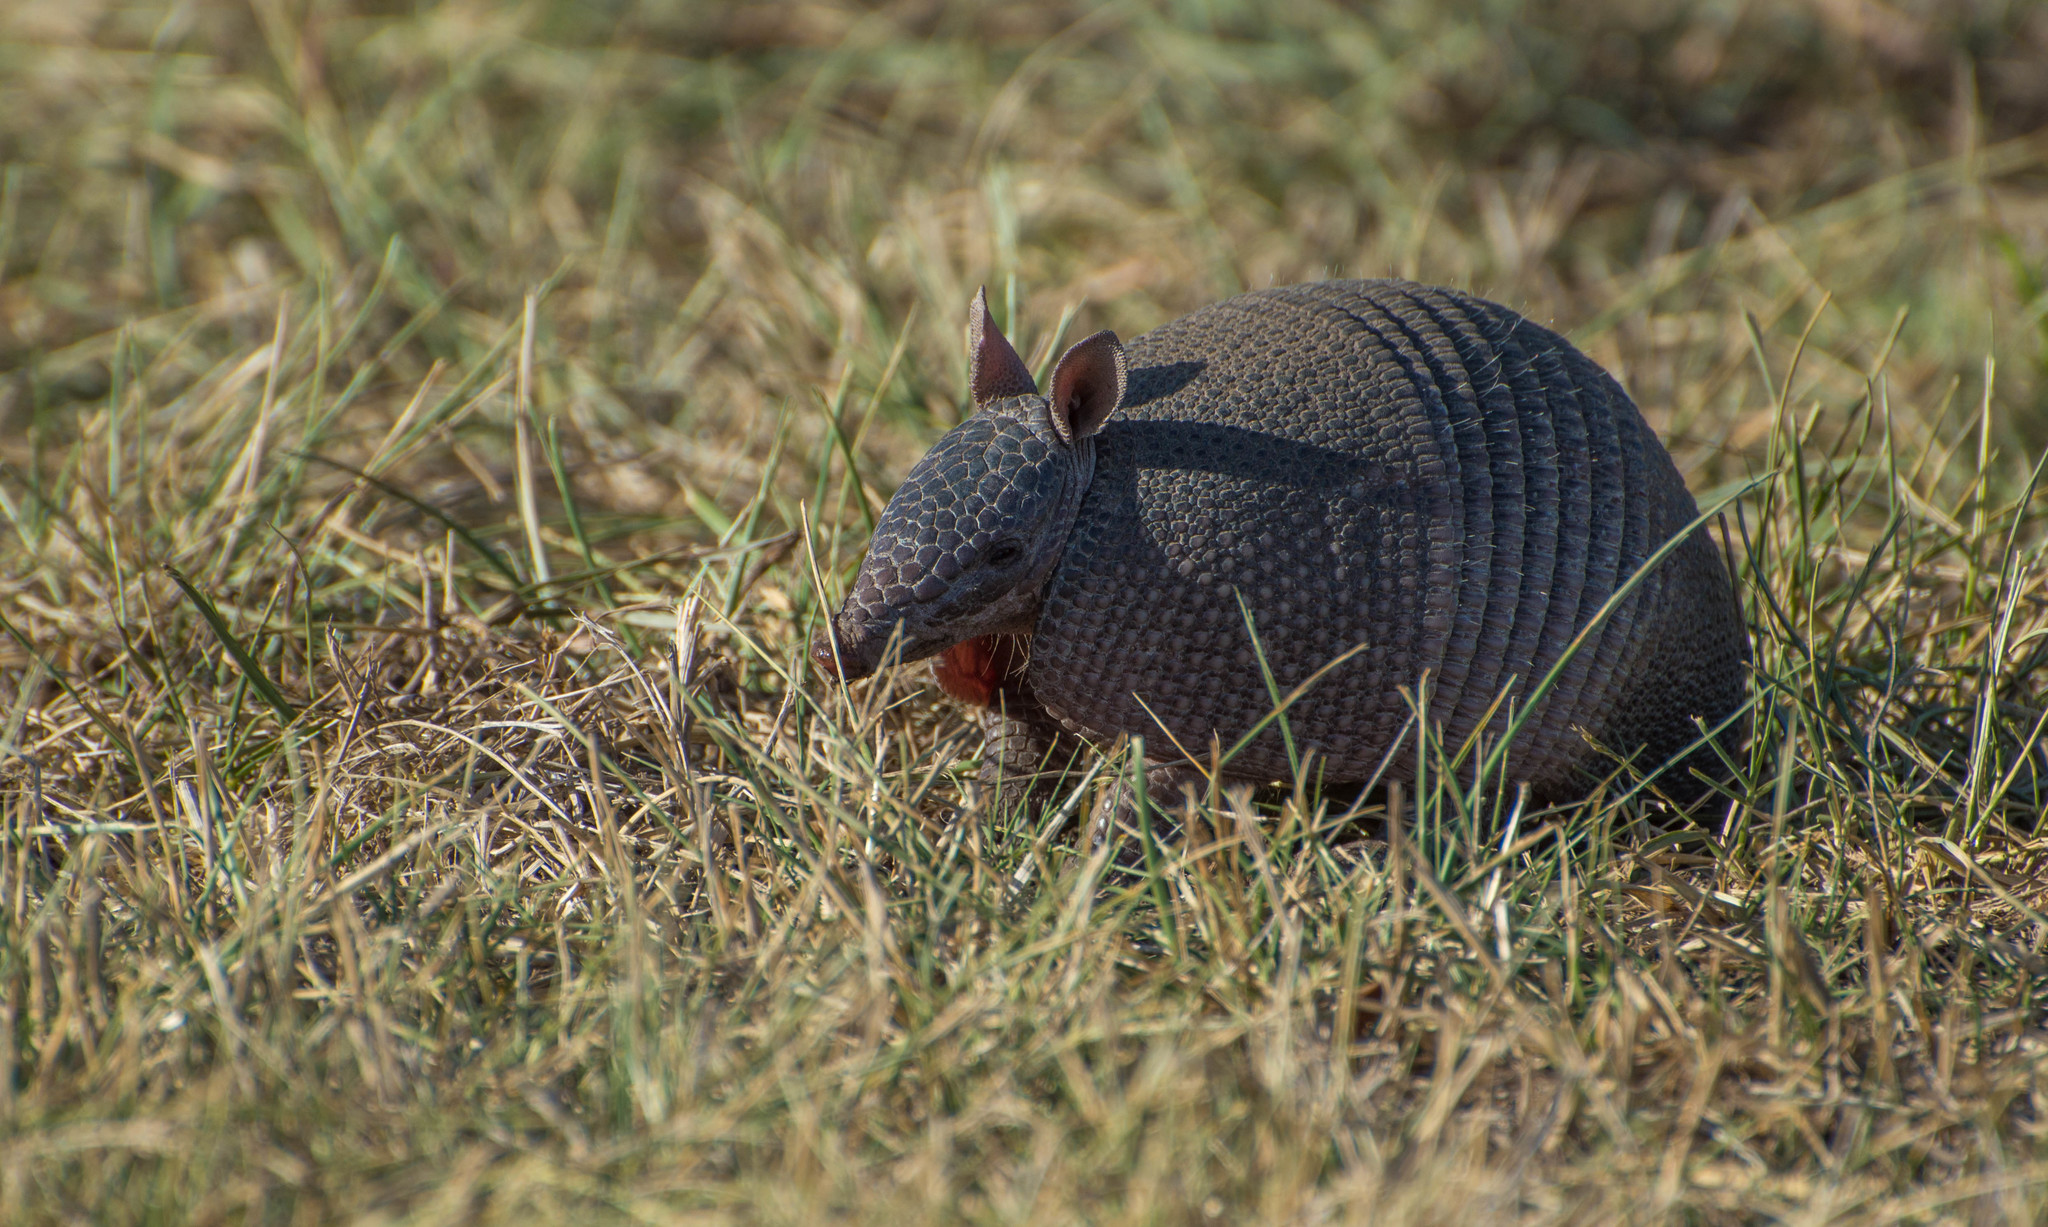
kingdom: Animalia
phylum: Chordata
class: Mammalia
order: Cingulata
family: Dasypodidae
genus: Dasypus
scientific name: Dasypus septemcinctus
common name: Seven-banded armadillo
